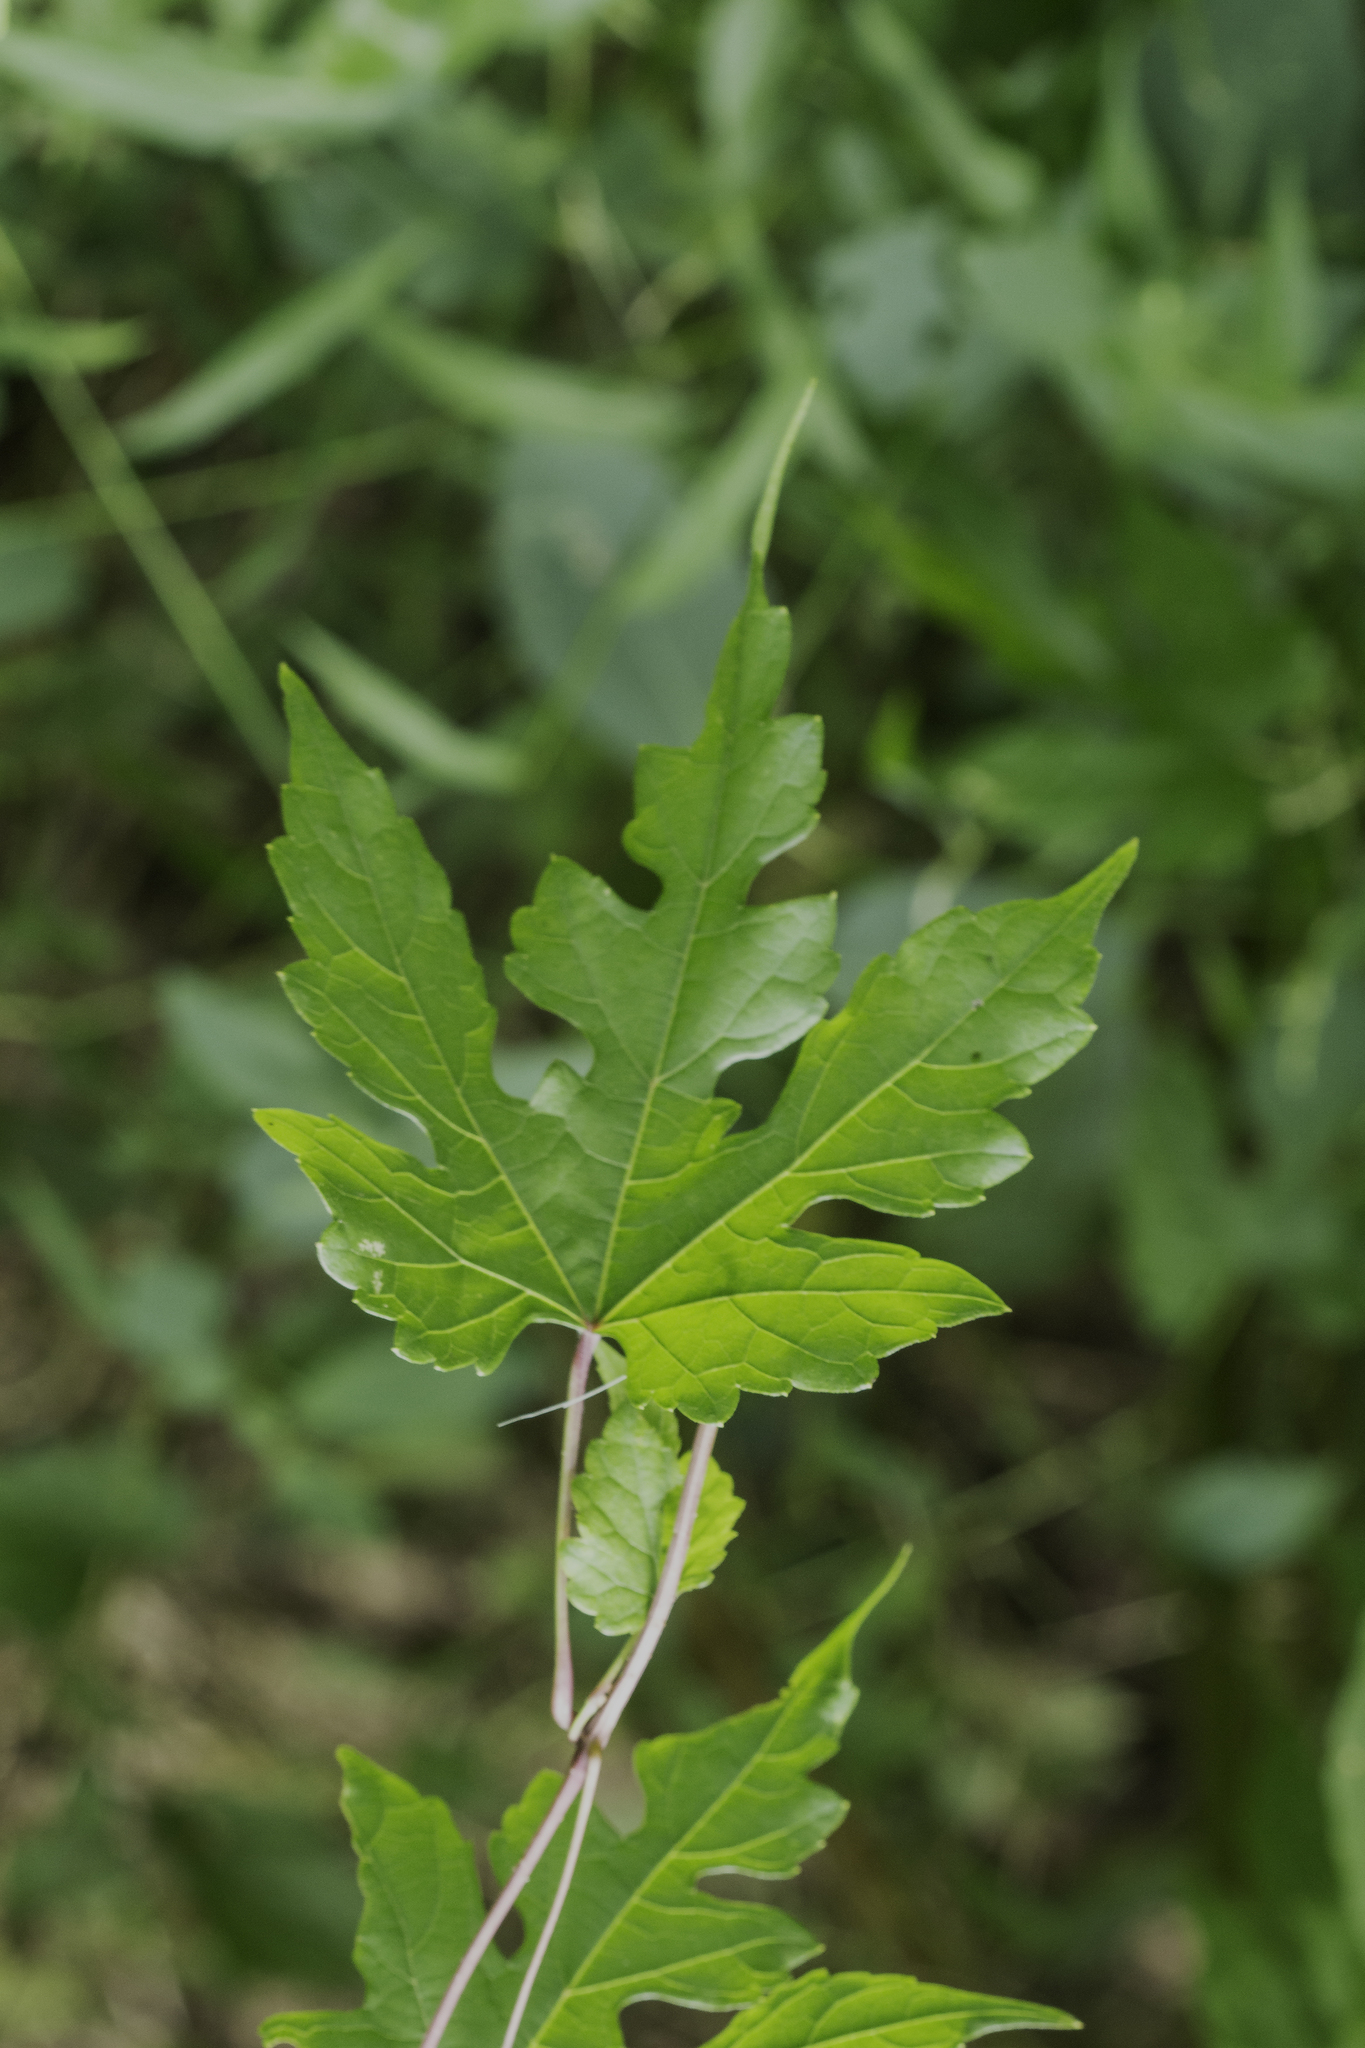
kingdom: Plantae
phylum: Tracheophyta
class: Magnoliopsida
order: Vitales
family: Vitaceae
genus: Ampelopsis
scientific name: Ampelopsis glandulosa
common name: Amur peppervine
